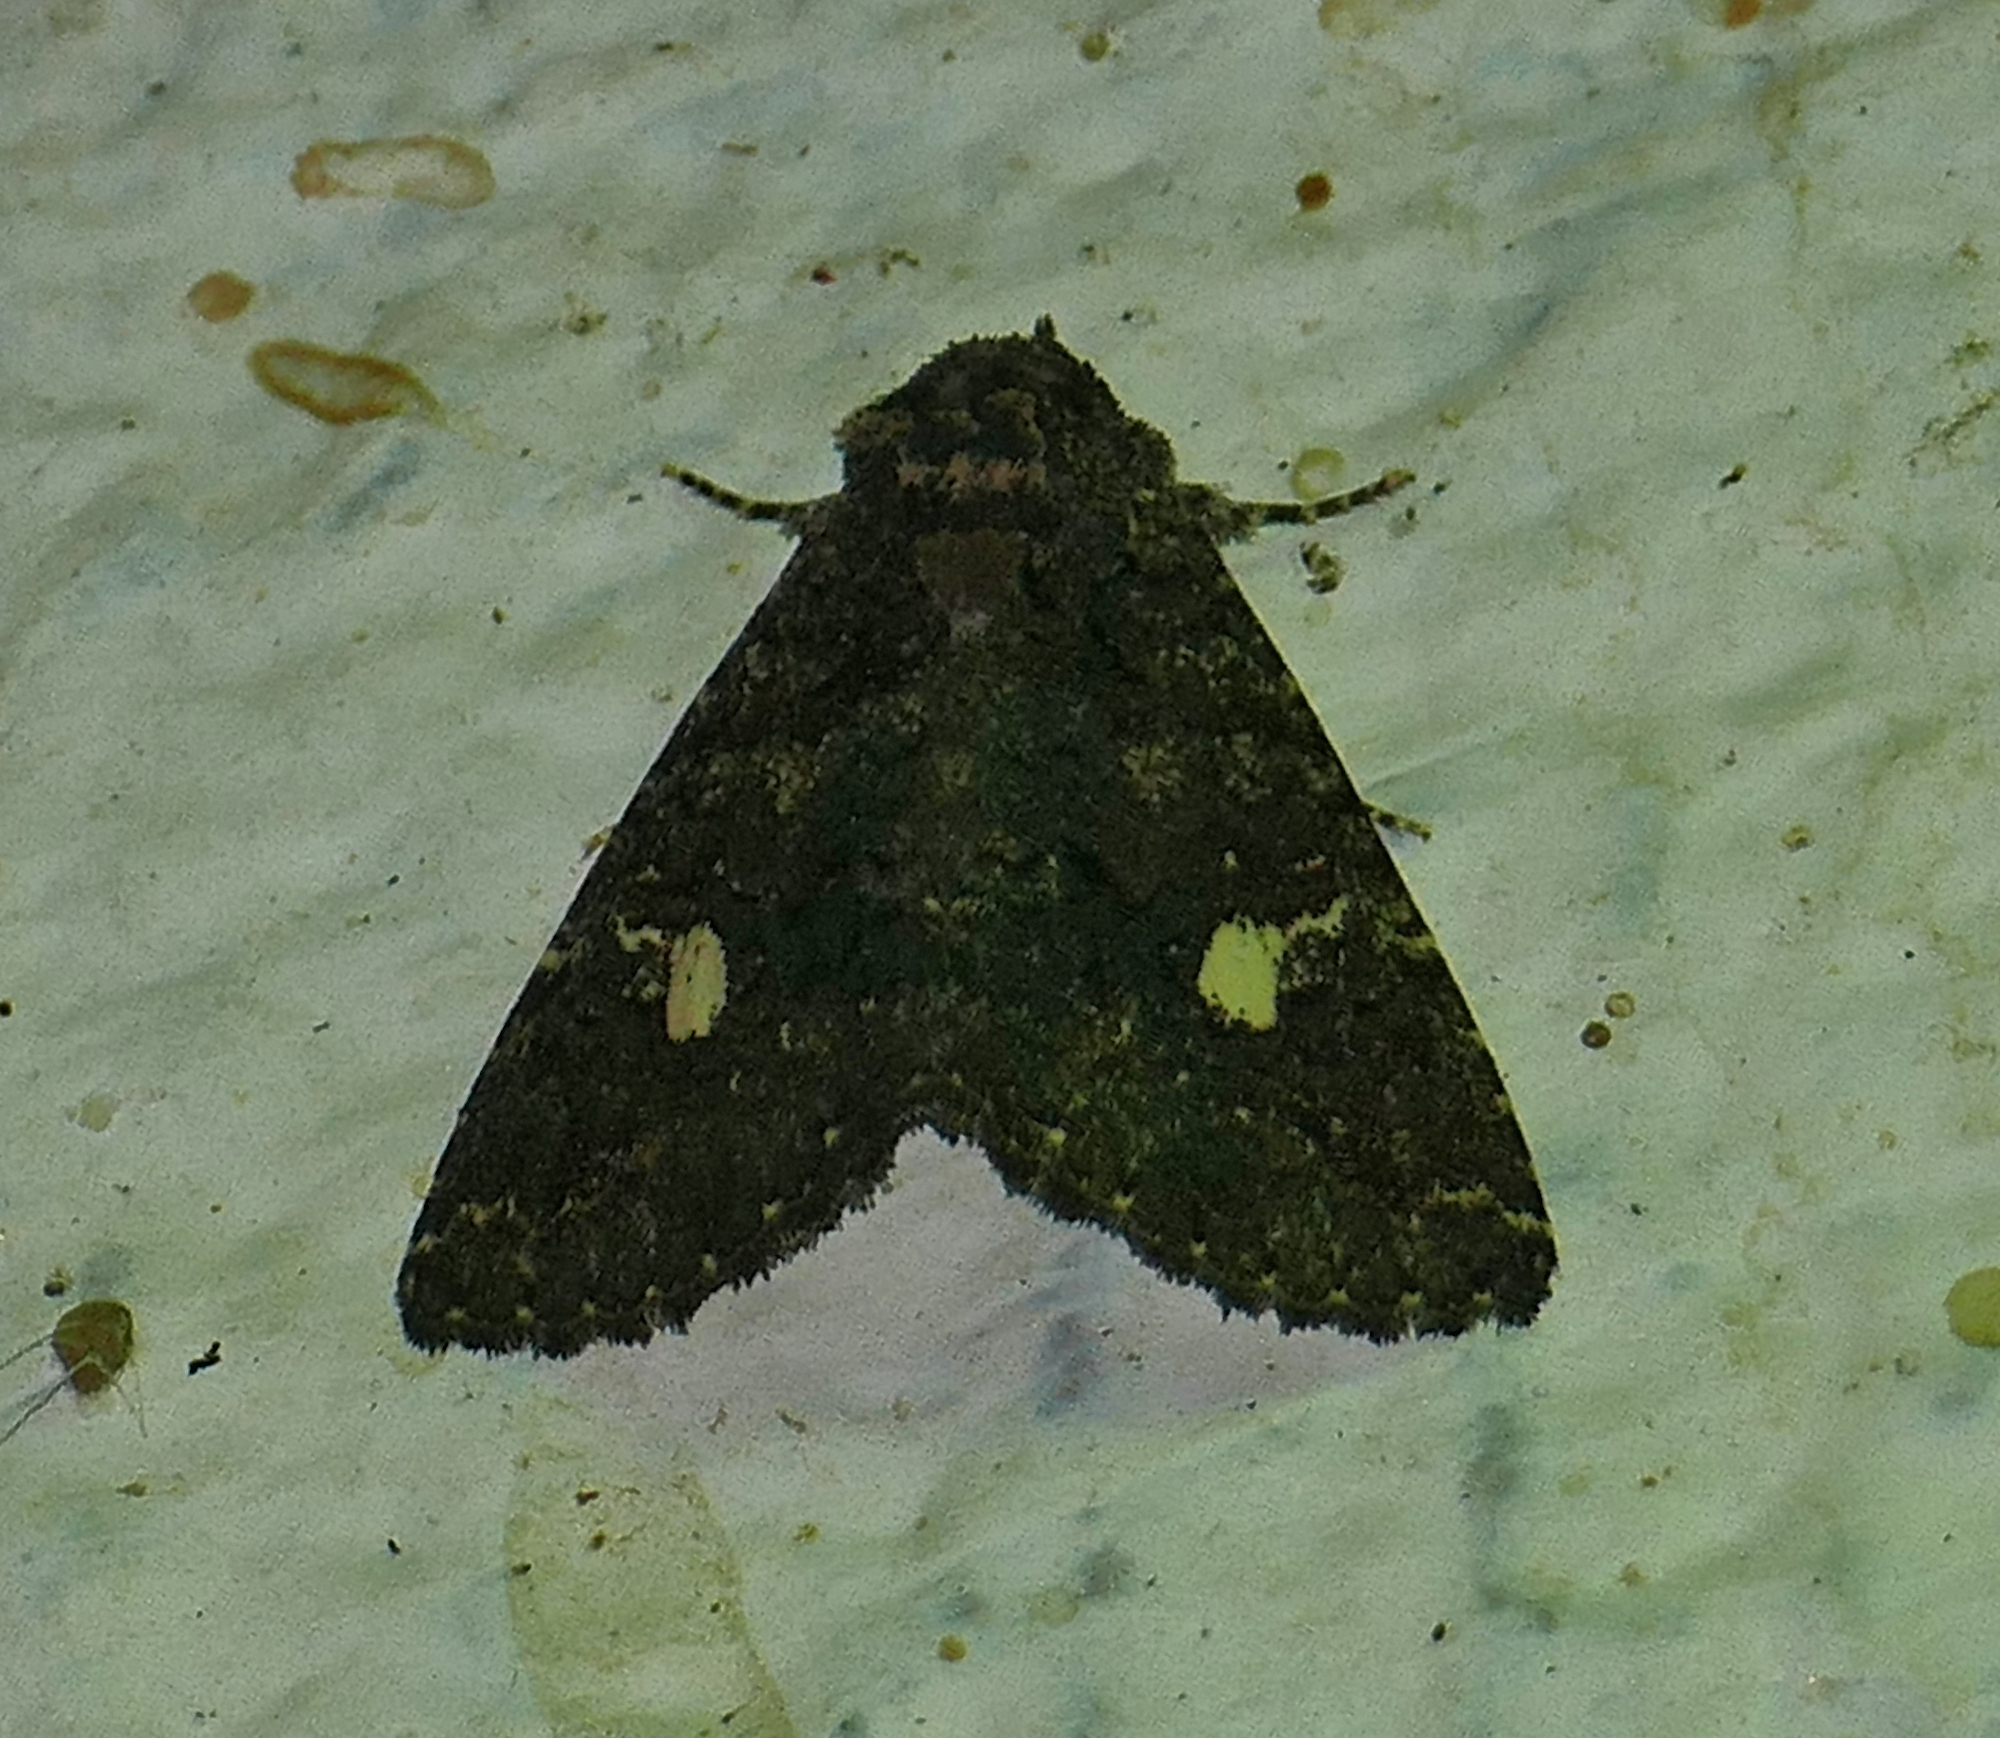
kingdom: Animalia
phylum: Arthropoda
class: Insecta
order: Lepidoptera
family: Erebidae
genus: Coxina
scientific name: Coxina cinctipalpis
